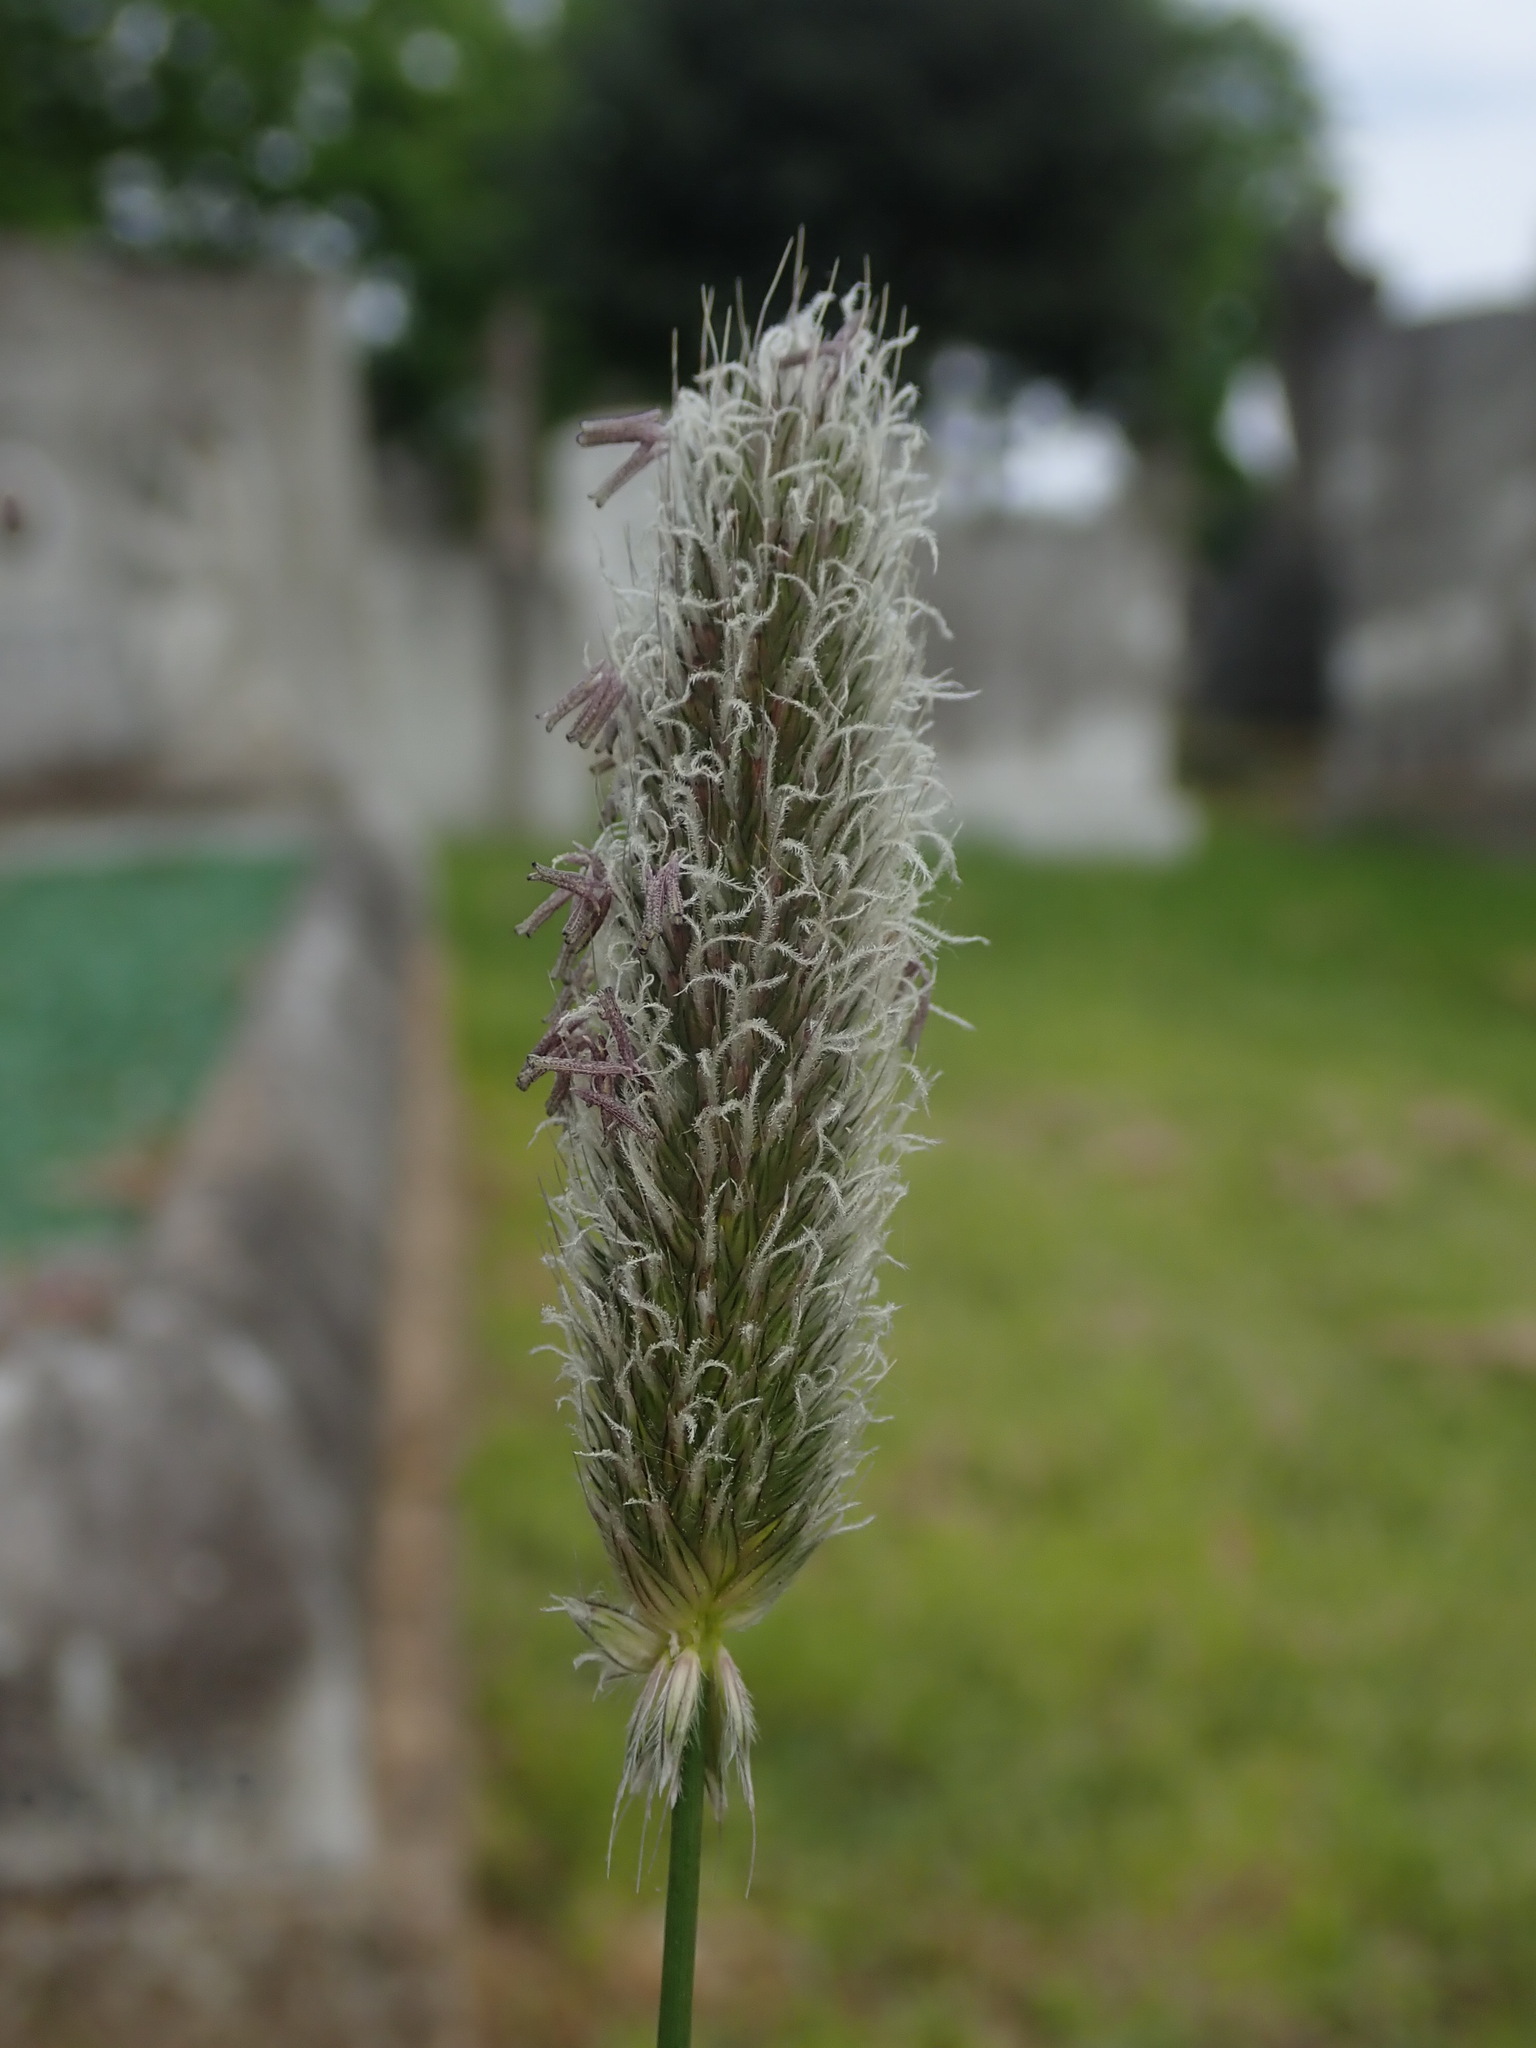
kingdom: Plantae
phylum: Tracheophyta
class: Liliopsida
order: Poales
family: Poaceae
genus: Alopecurus
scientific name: Alopecurus pratensis
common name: Meadow foxtail
